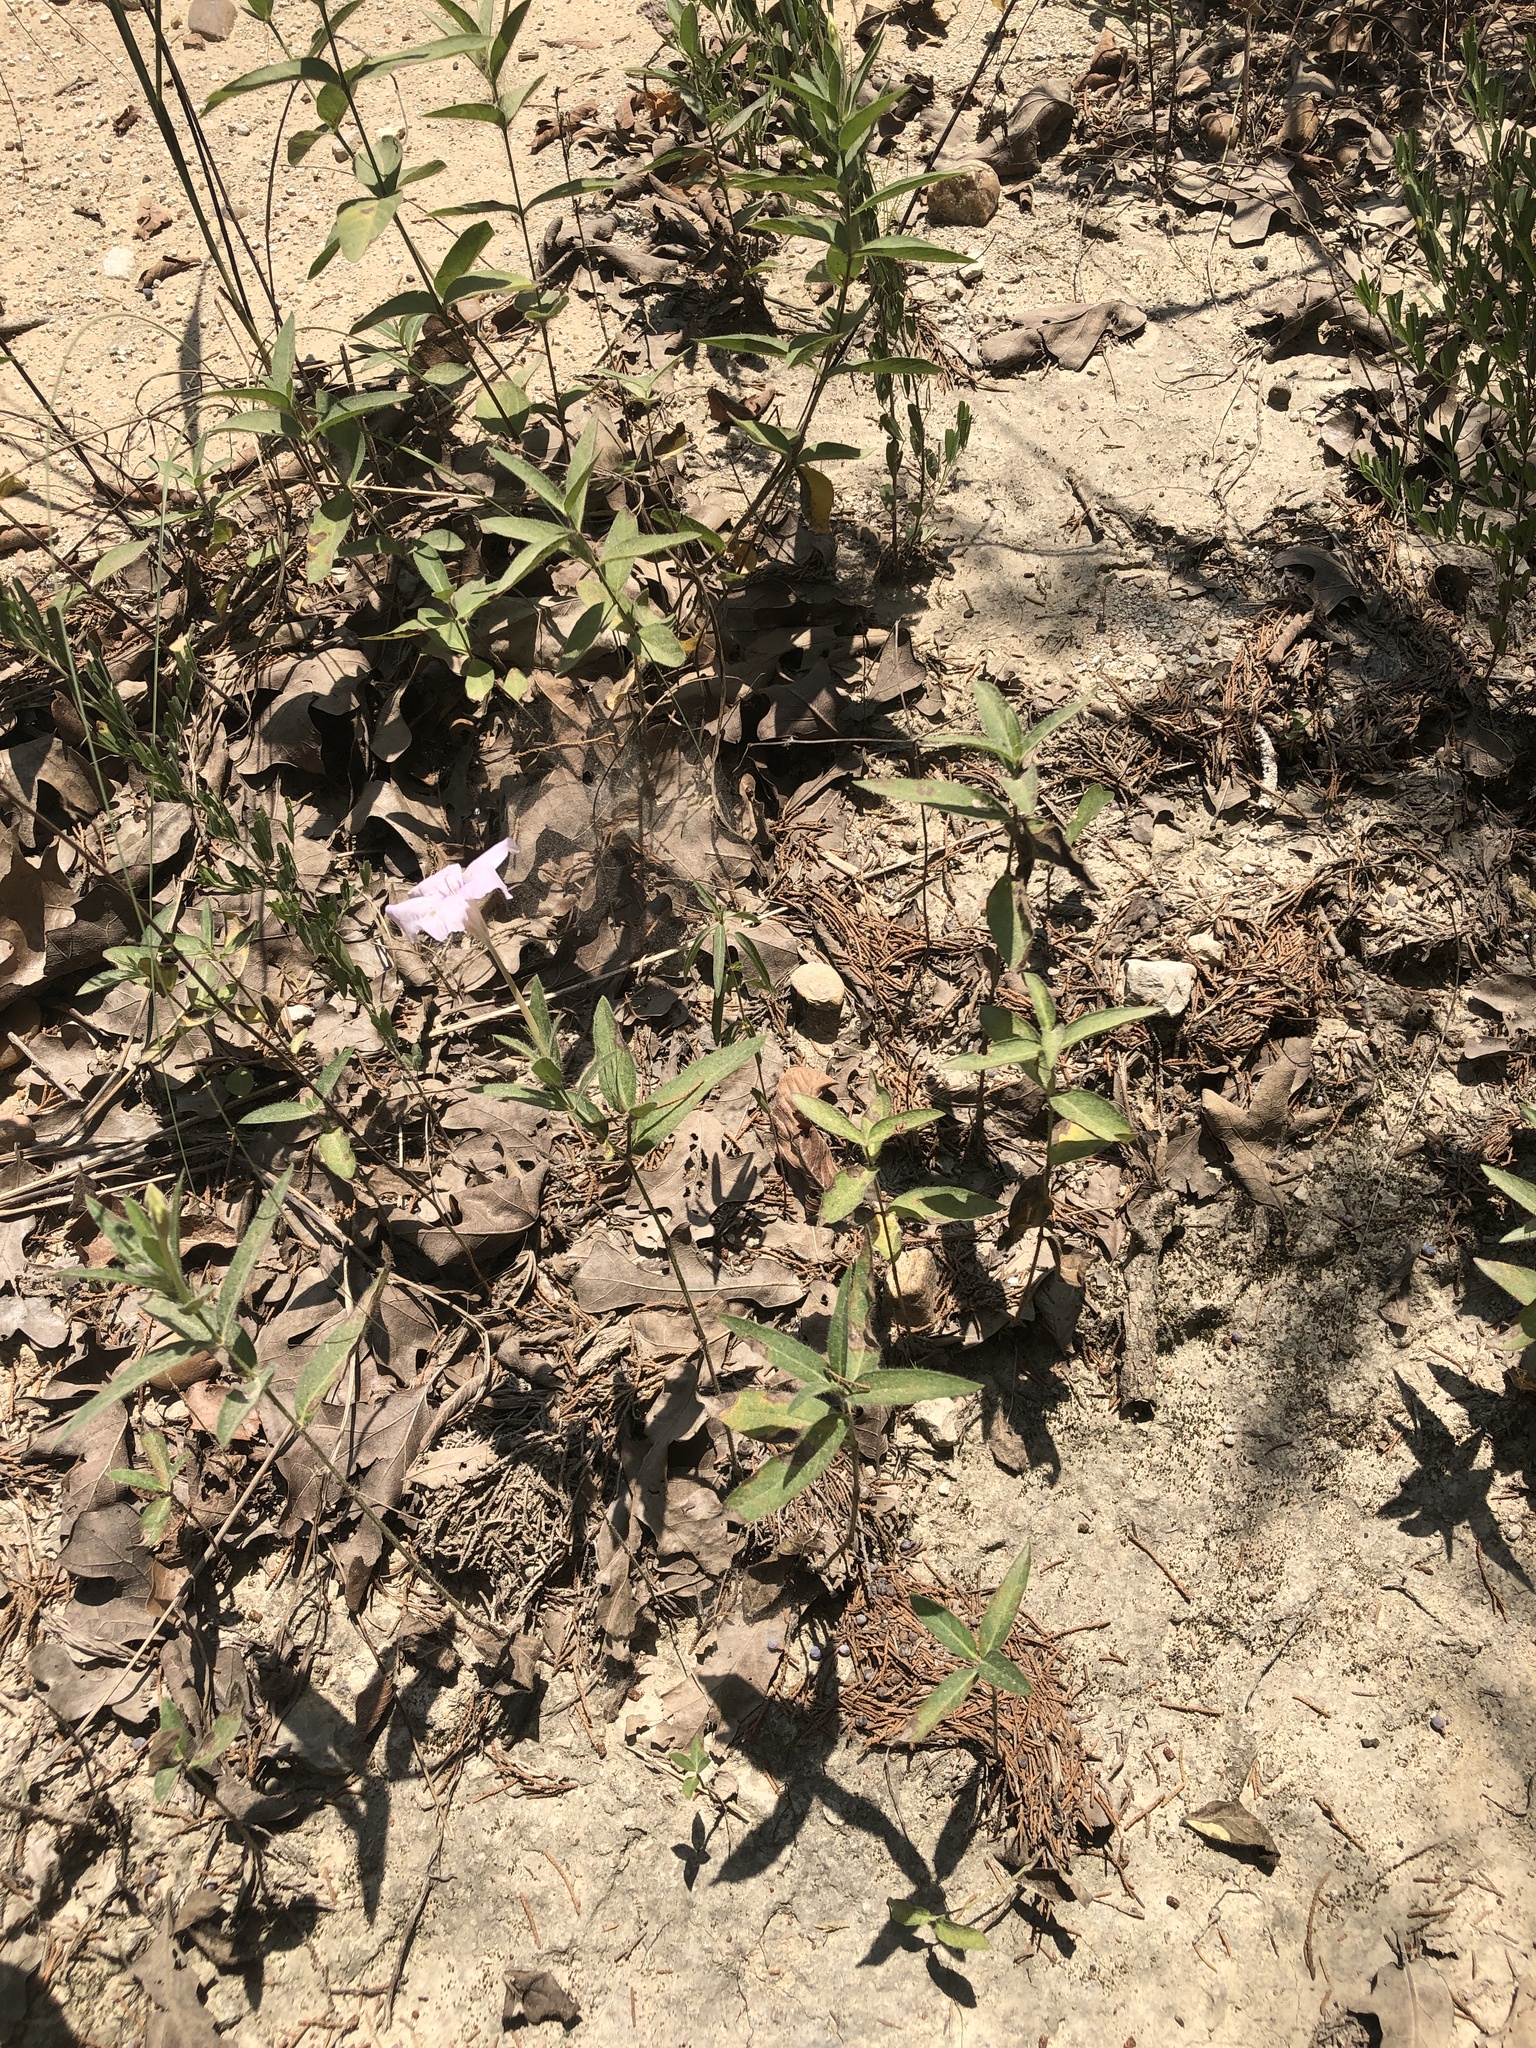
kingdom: Plantae
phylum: Tracheophyta
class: Magnoliopsida
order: Lamiales
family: Acanthaceae
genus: Ruellia
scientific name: Ruellia humilis
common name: Fringe-leaf ruellia
